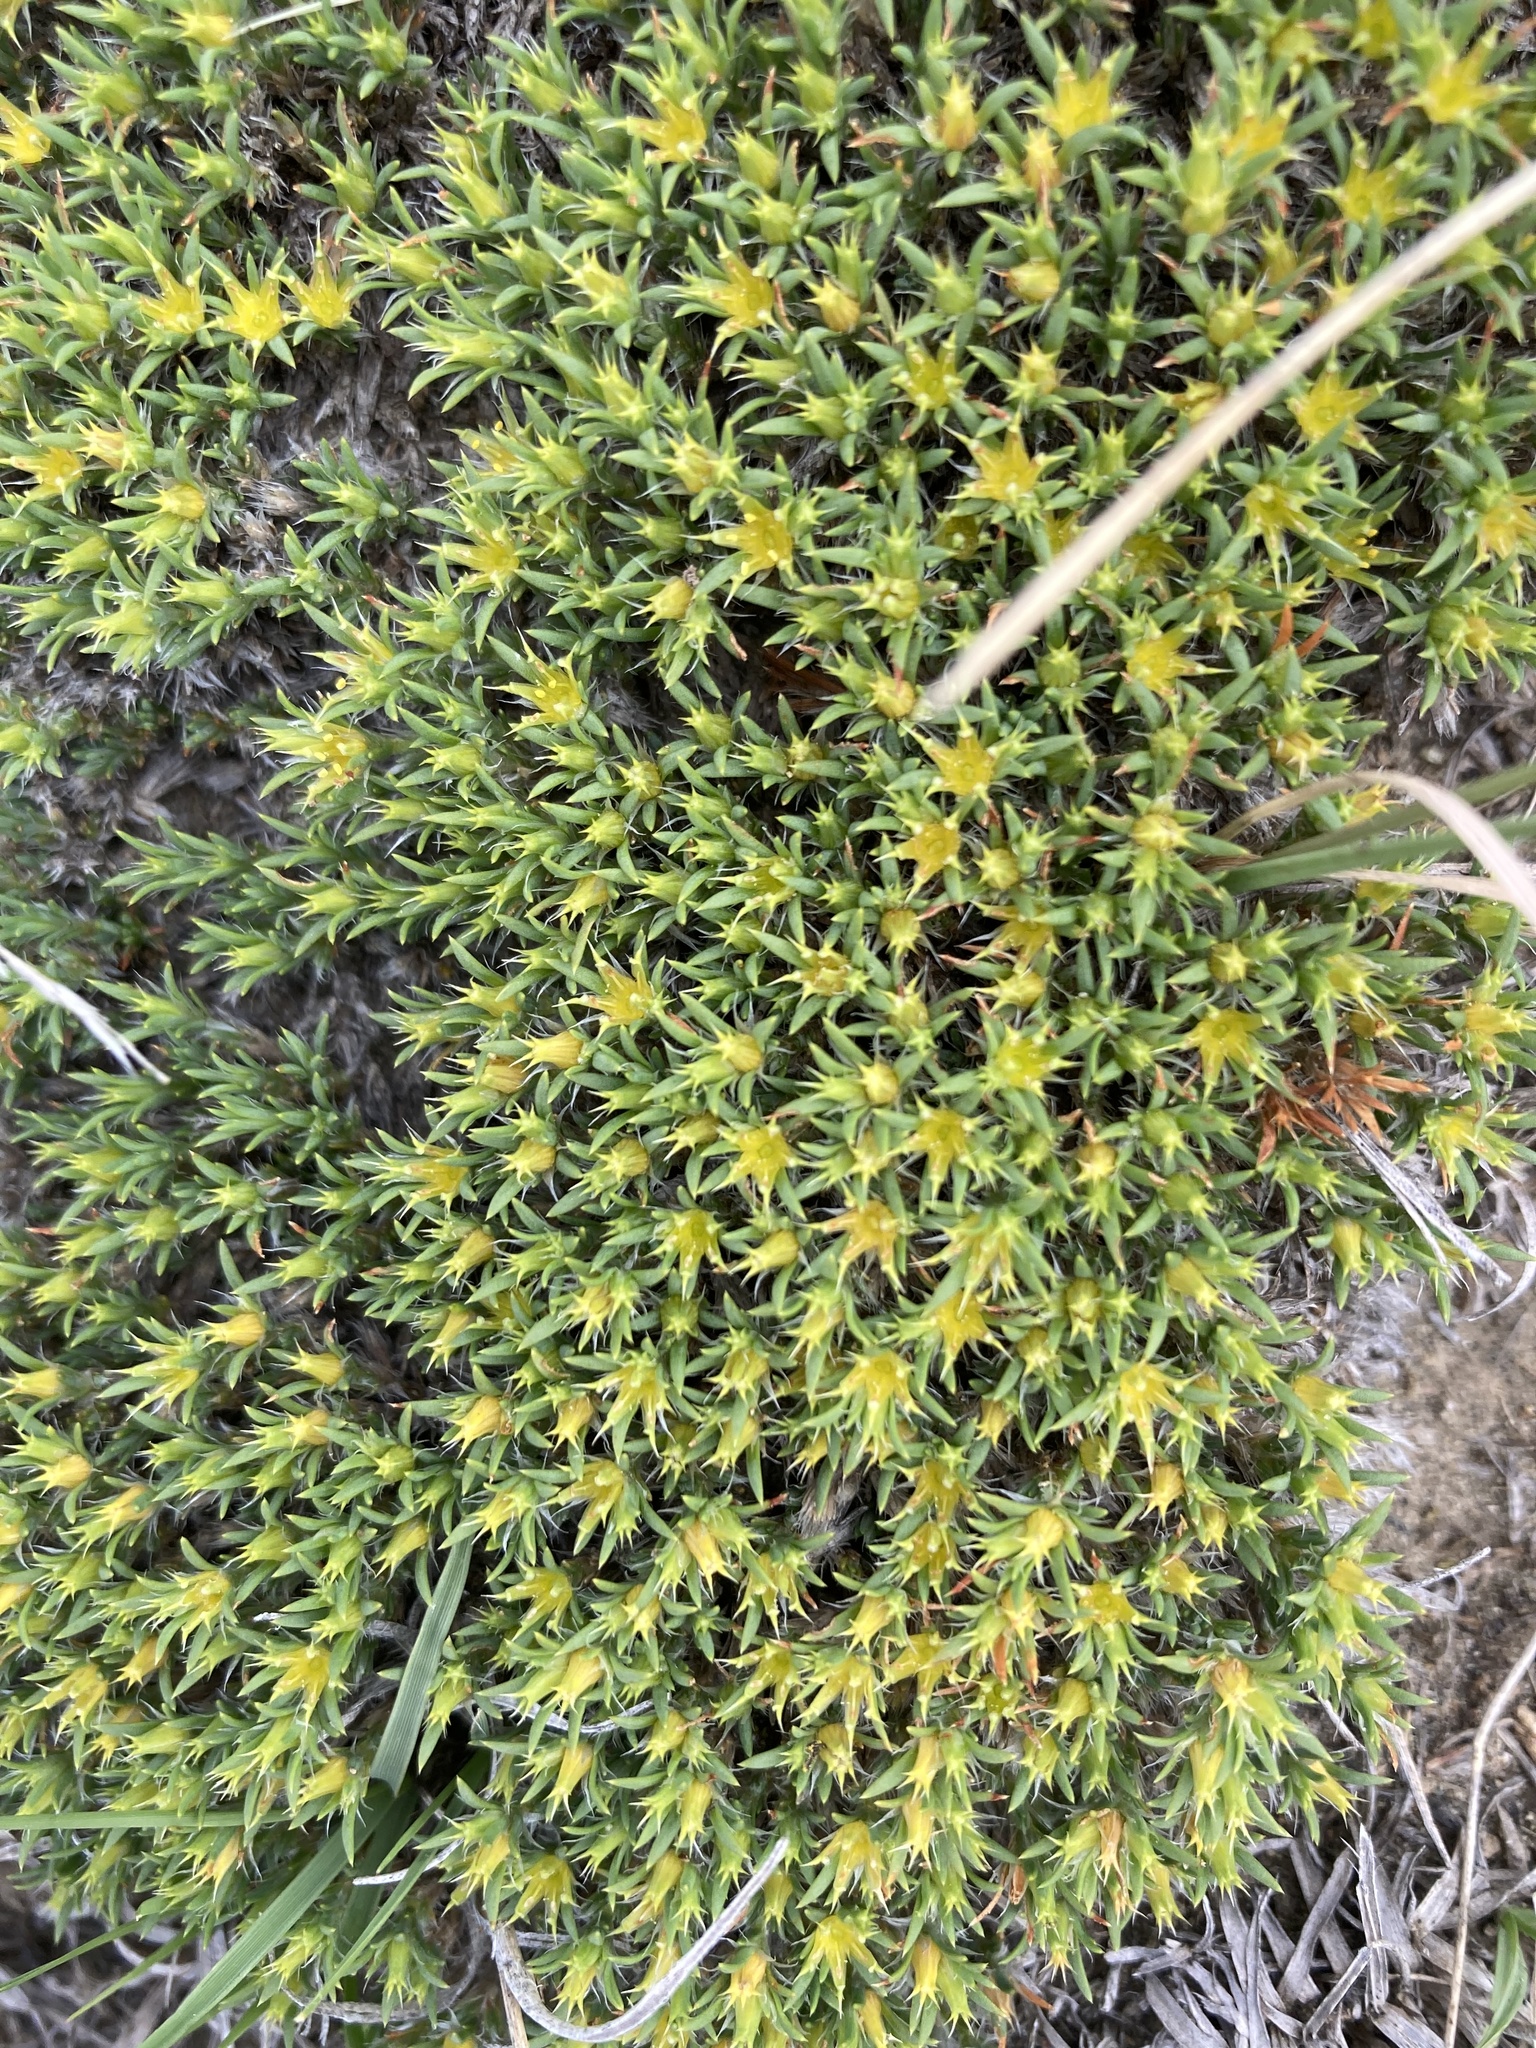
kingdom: Plantae
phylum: Tracheophyta
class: Magnoliopsida
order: Caryophyllales
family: Caryophyllaceae
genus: Paronychia
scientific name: Paronychia sessiliflora
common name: Creeping nailwort
